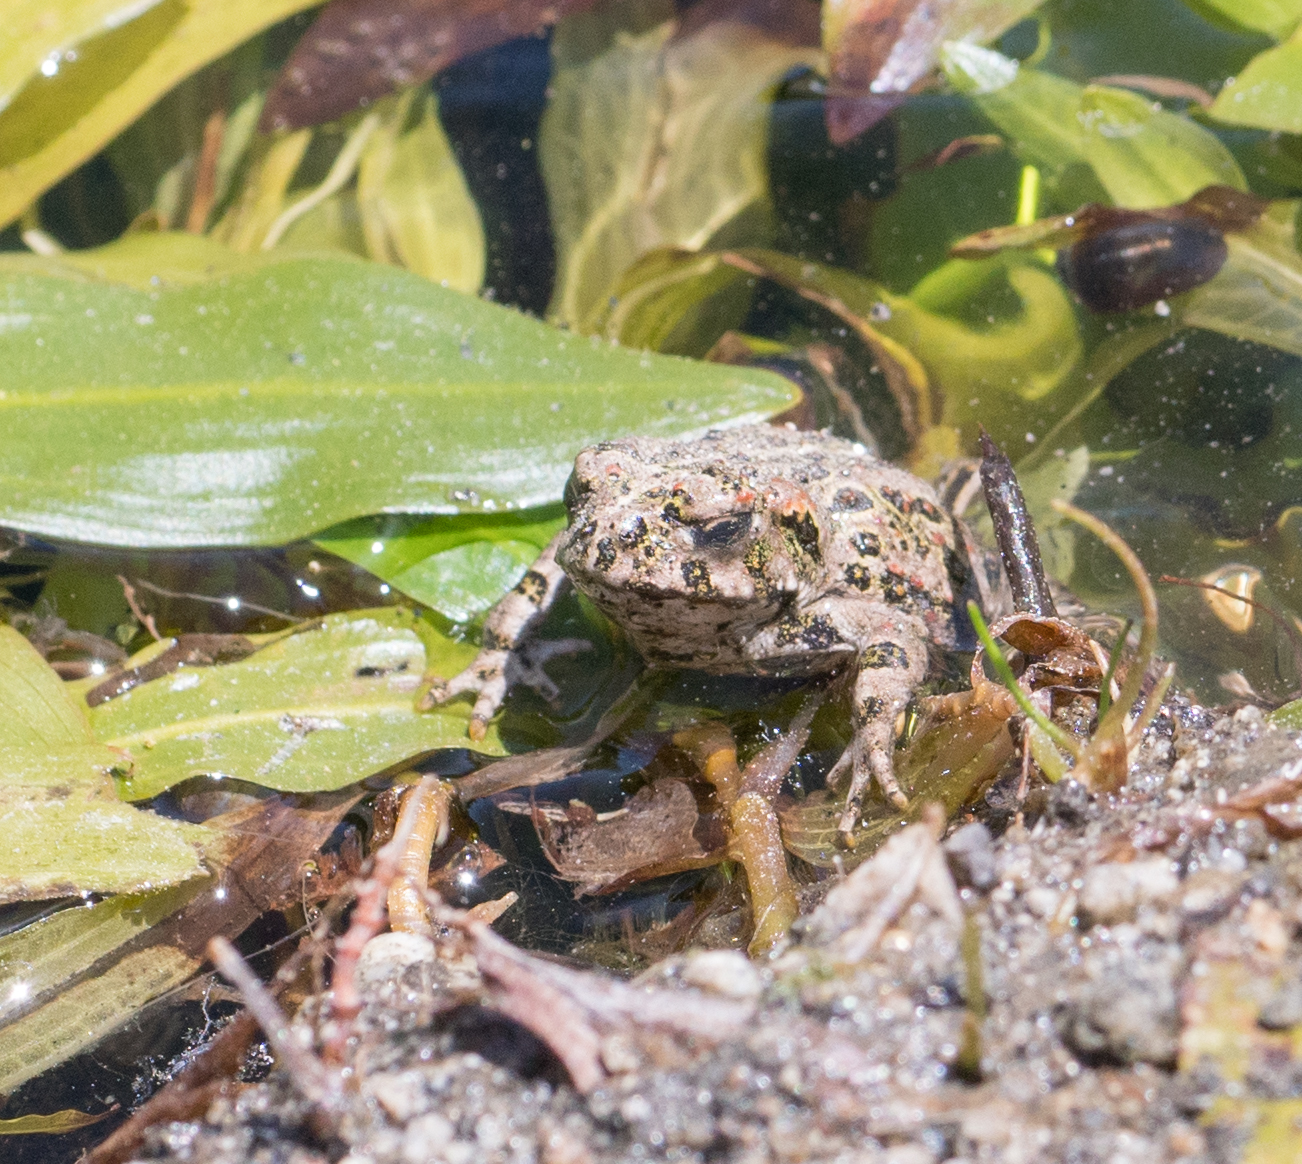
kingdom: Animalia
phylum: Chordata
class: Amphibia
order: Anura
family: Bufonidae
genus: Anaxyrus
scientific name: Anaxyrus boreas
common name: Western toad
